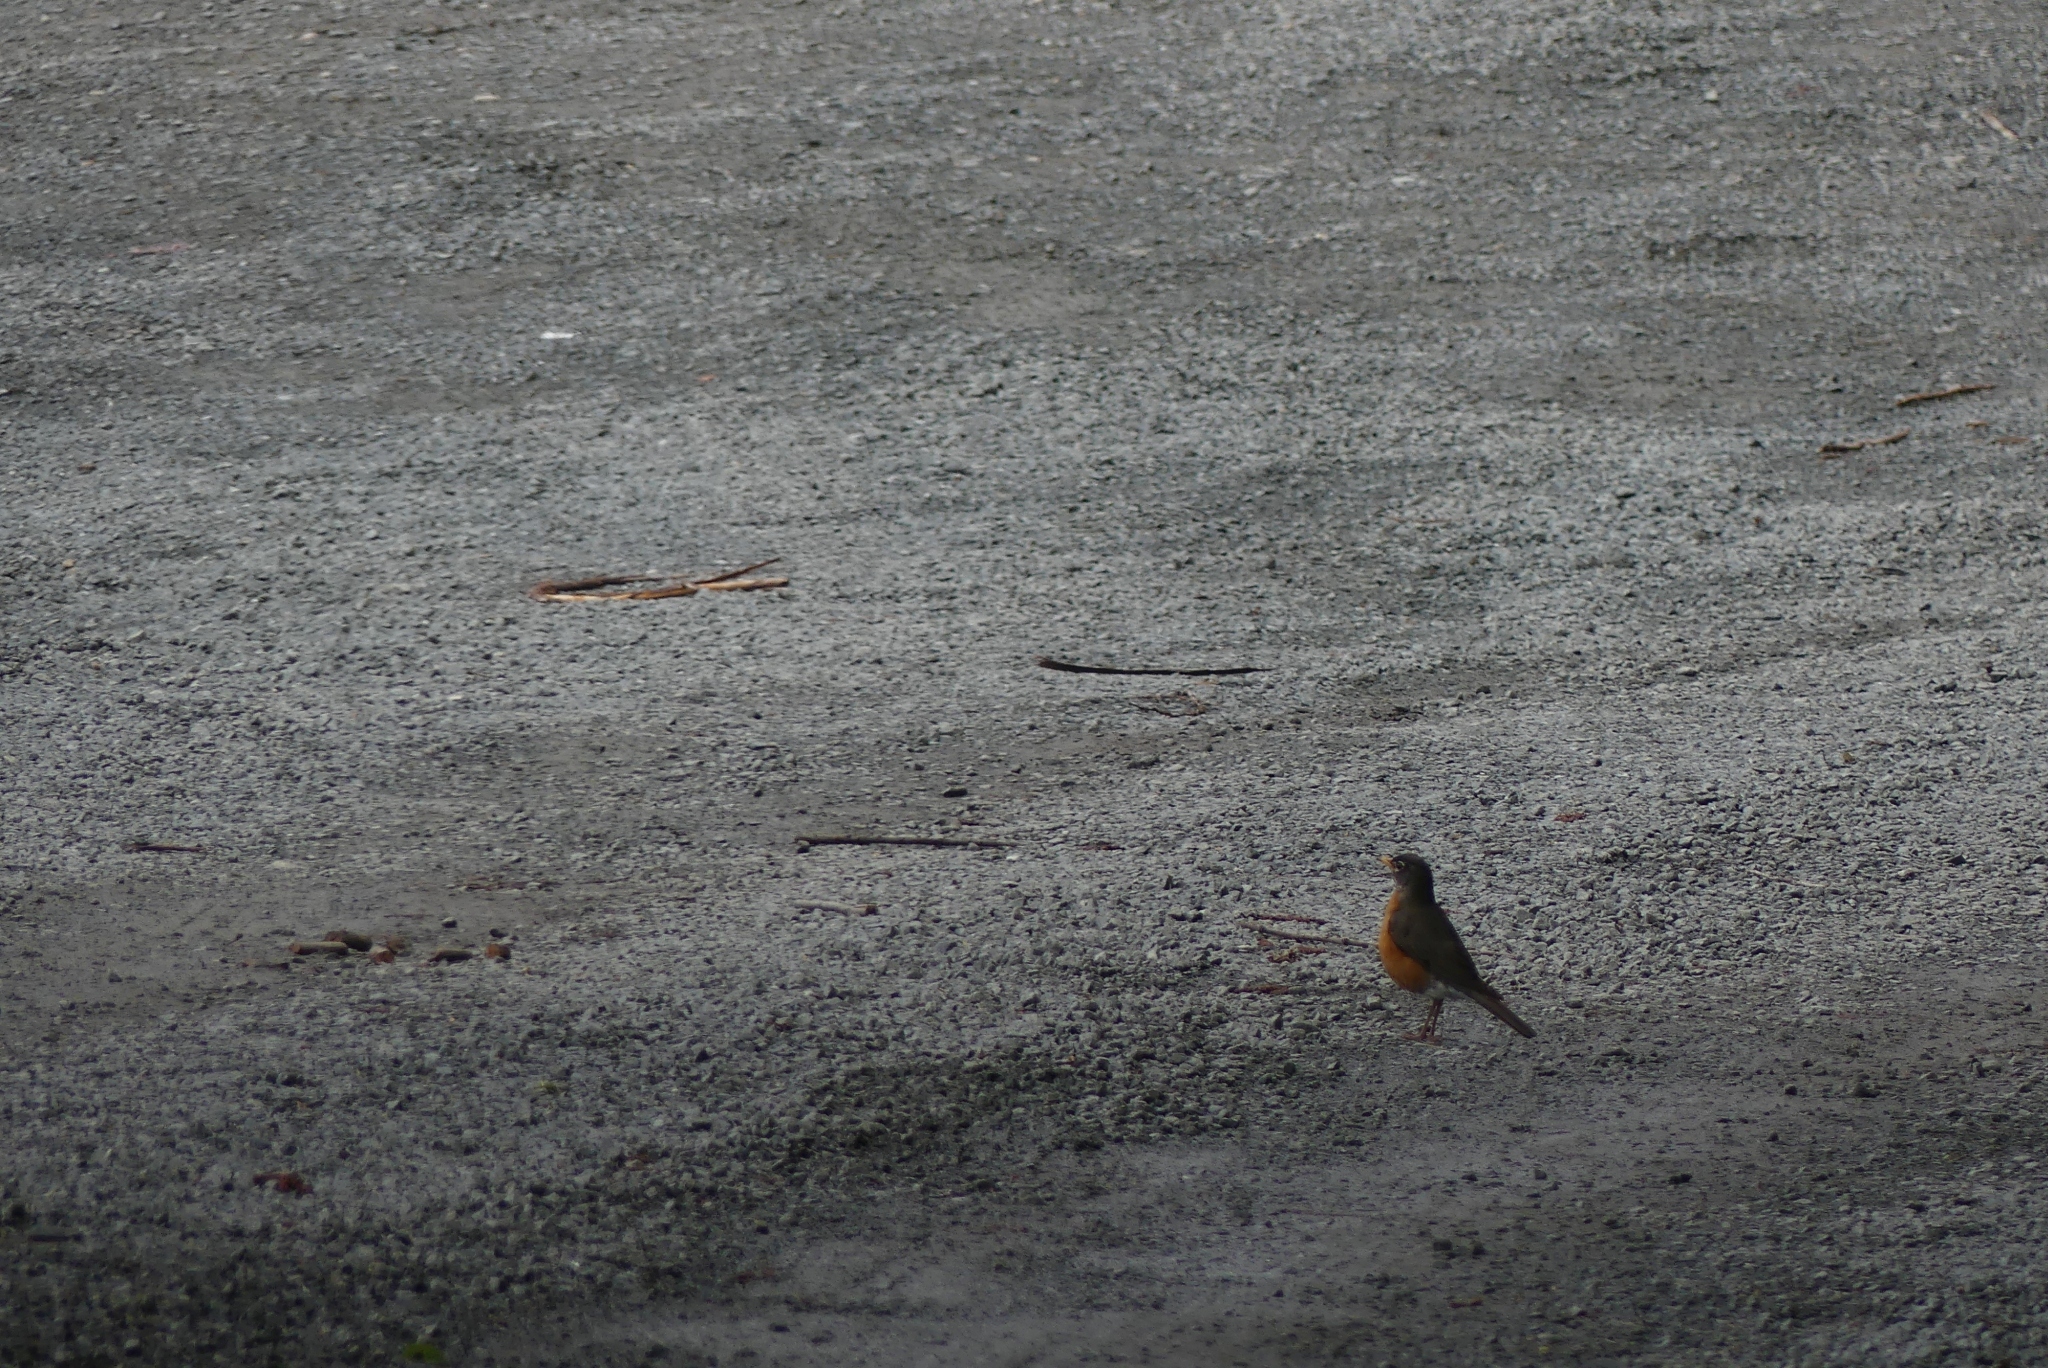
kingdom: Animalia
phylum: Chordata
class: Aves
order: Passeriformes
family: Turdidae
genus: Turdus
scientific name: Turdus migratorius
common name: American robin
